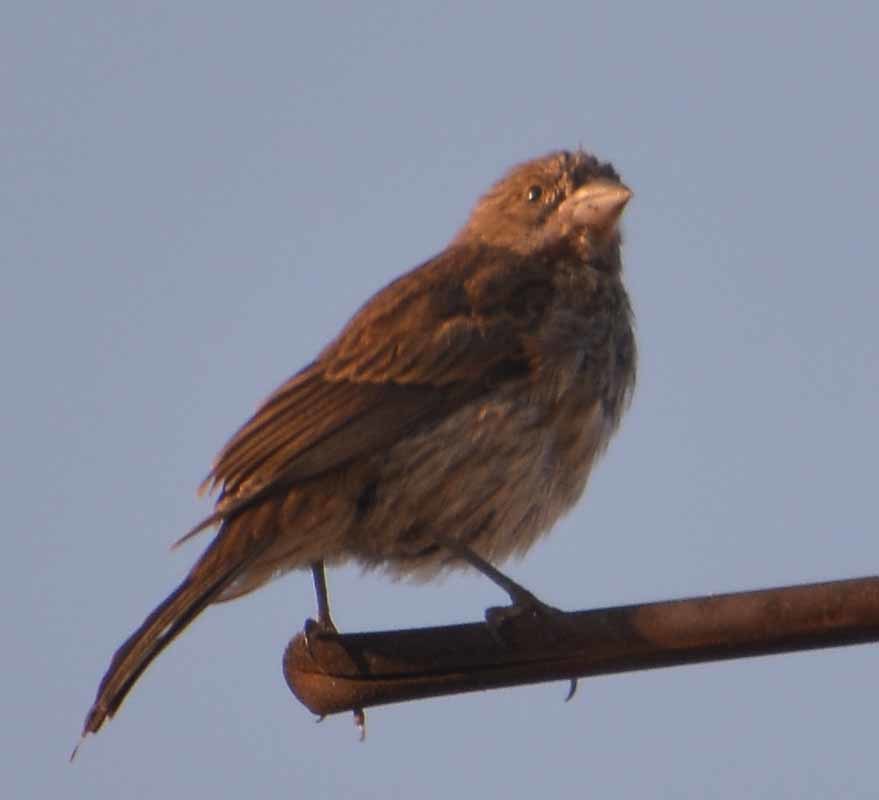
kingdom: Animalia
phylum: Chordata
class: Aves
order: Passeriformes
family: Fringillidae
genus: Haemorhous
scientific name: Haemorhous mexicanus
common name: House finch
